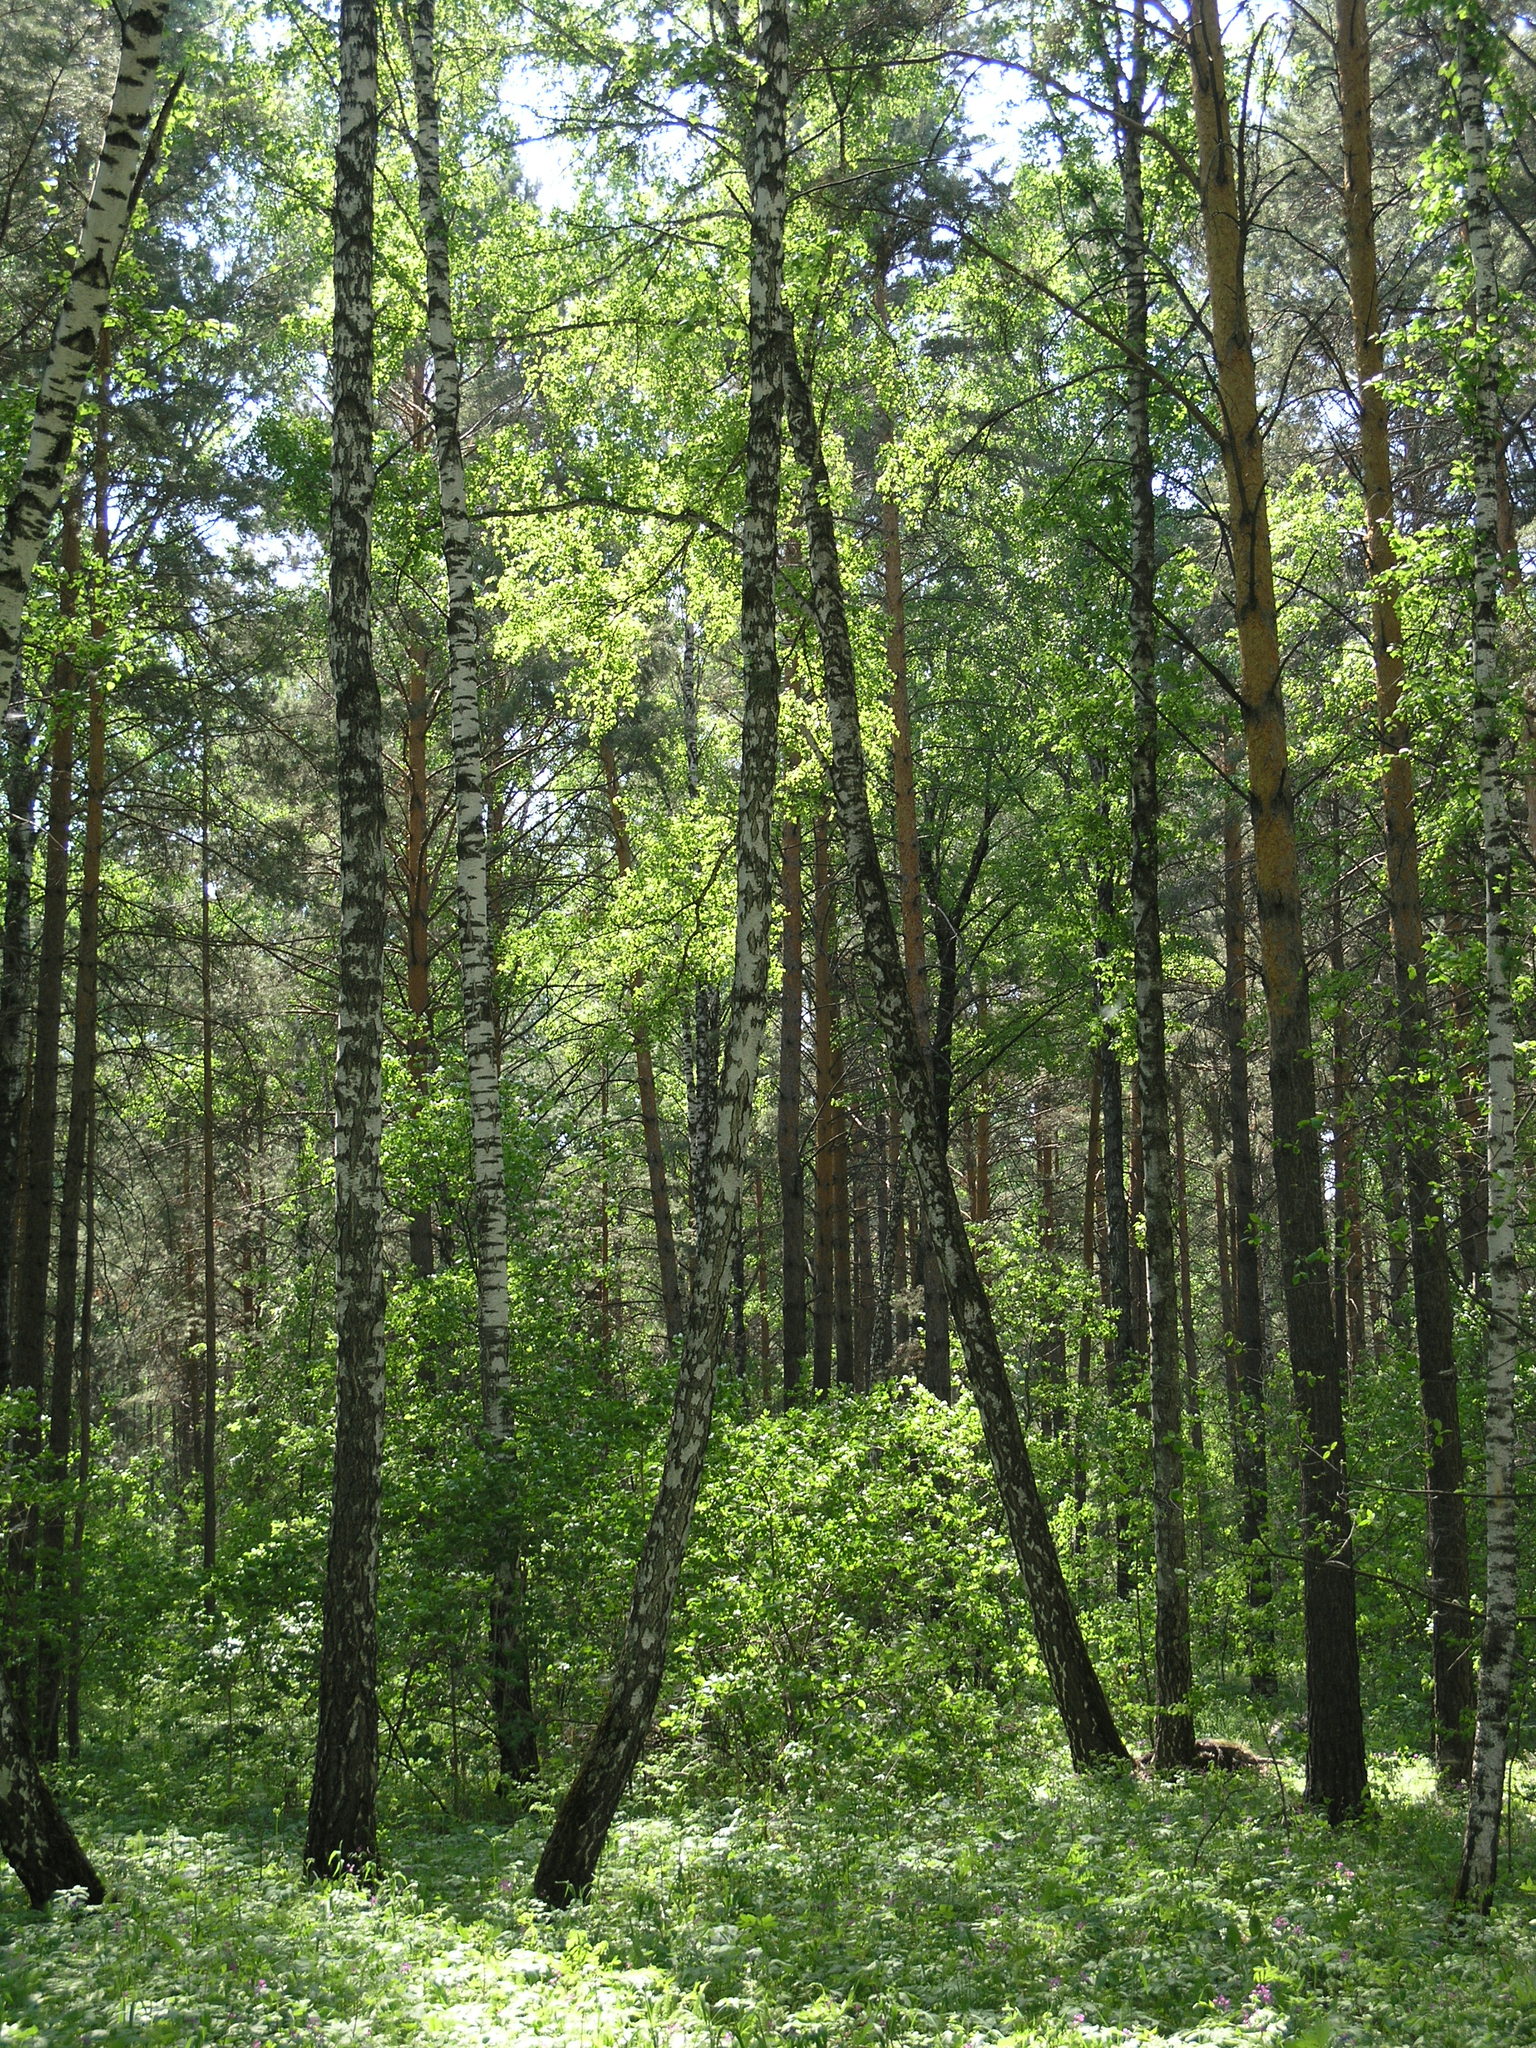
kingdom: Plantae
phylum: Tracheophyta
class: Pinopsida
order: Pinales
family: Pinaceae
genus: Pinus
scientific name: Pinus sylvestris
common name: Scots pine
